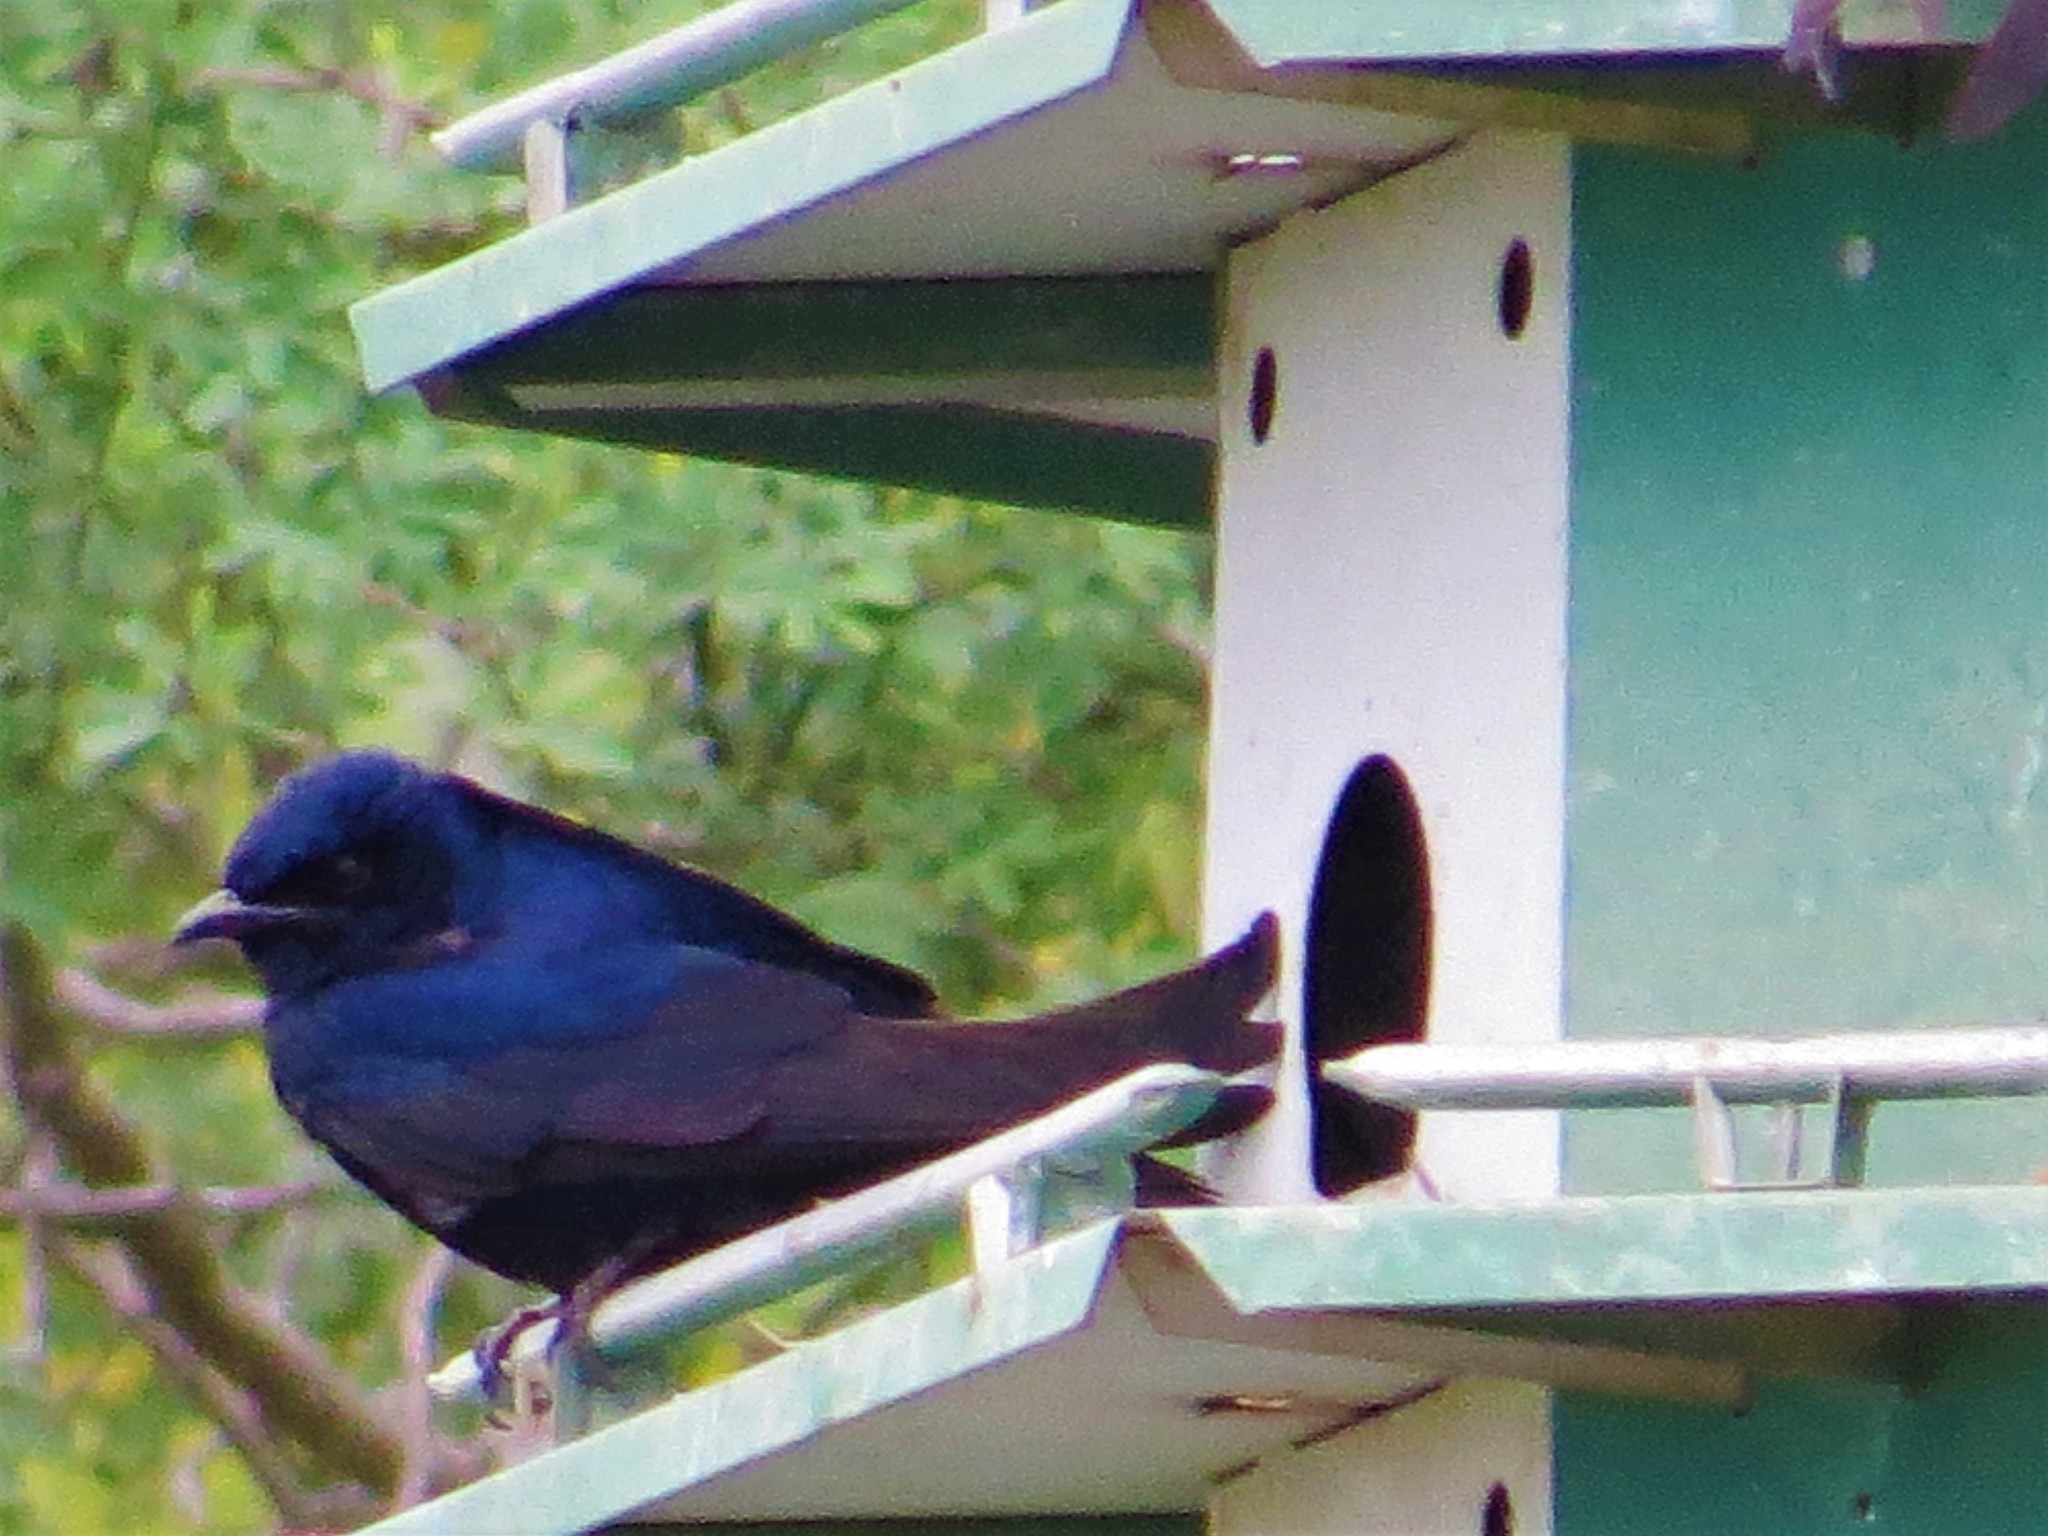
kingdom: Animalia
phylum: Chordata
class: Aves
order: Passeriformes
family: Hirundinidae
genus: Progne
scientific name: Progne subis
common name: Purple martin
